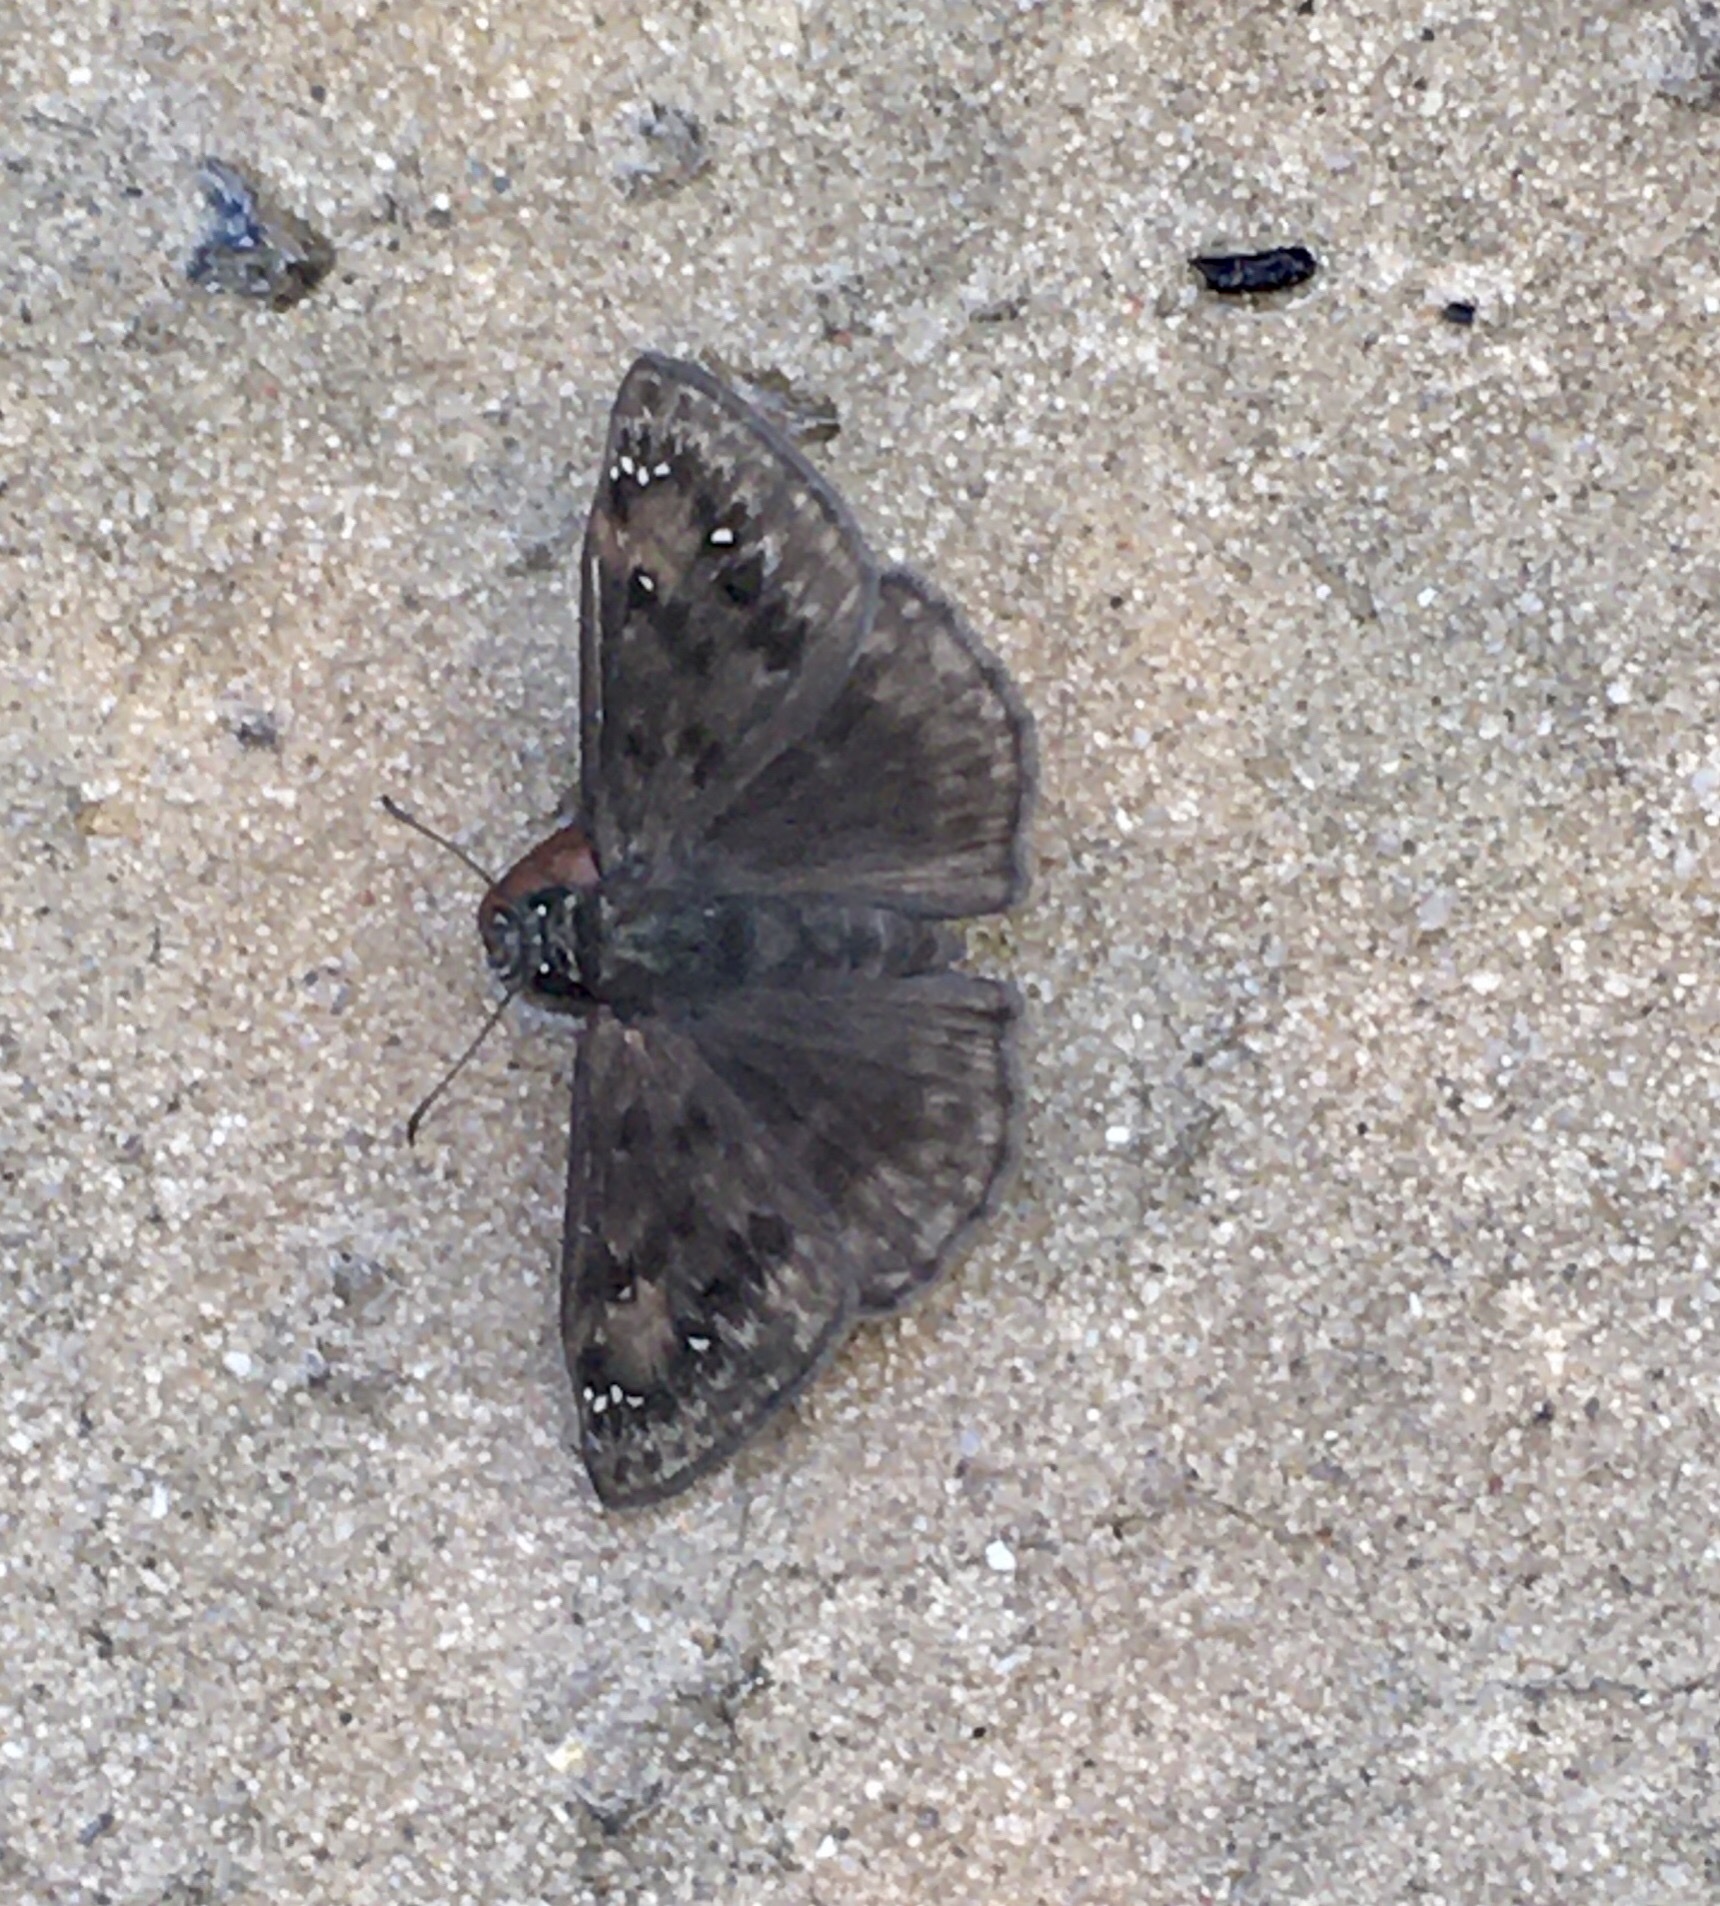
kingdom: Animalia
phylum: Arthropoda
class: Insecta
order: Lepidoptera
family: Hesperiidae
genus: Erynnis
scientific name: Erynnis horatius
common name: Horace's duskywing
